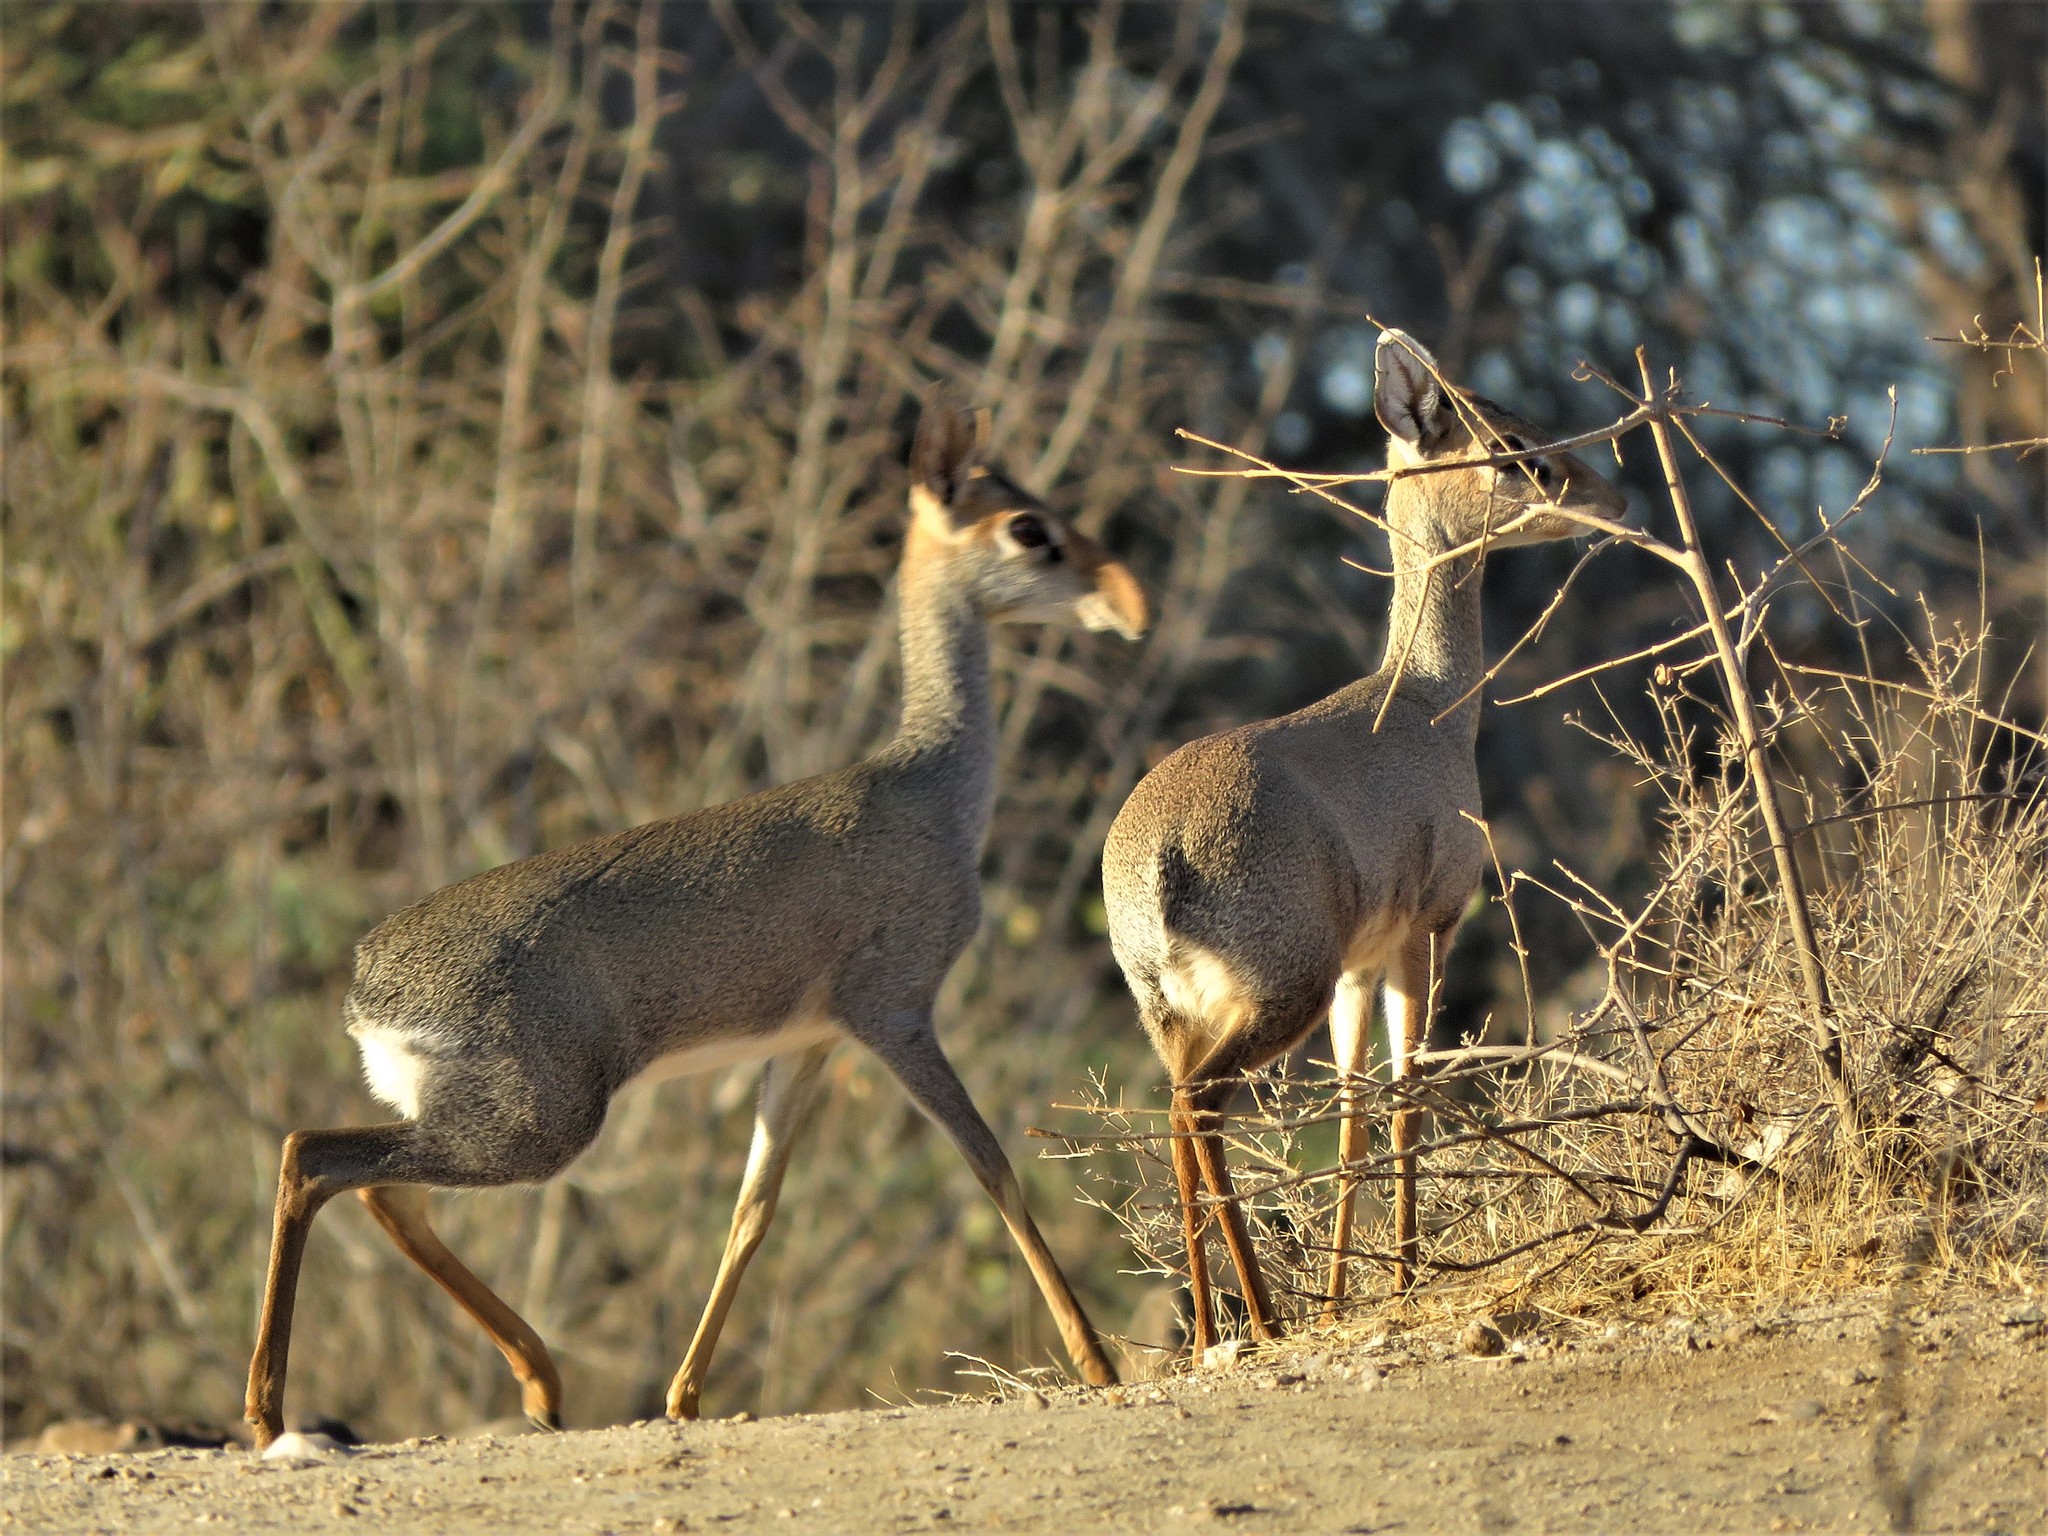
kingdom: Animalia
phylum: Chordata
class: Mammalia
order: Artiodactyla
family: Bovidae
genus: Madoqua
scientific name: Madoqua guentheri
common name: Günther's dikdik
